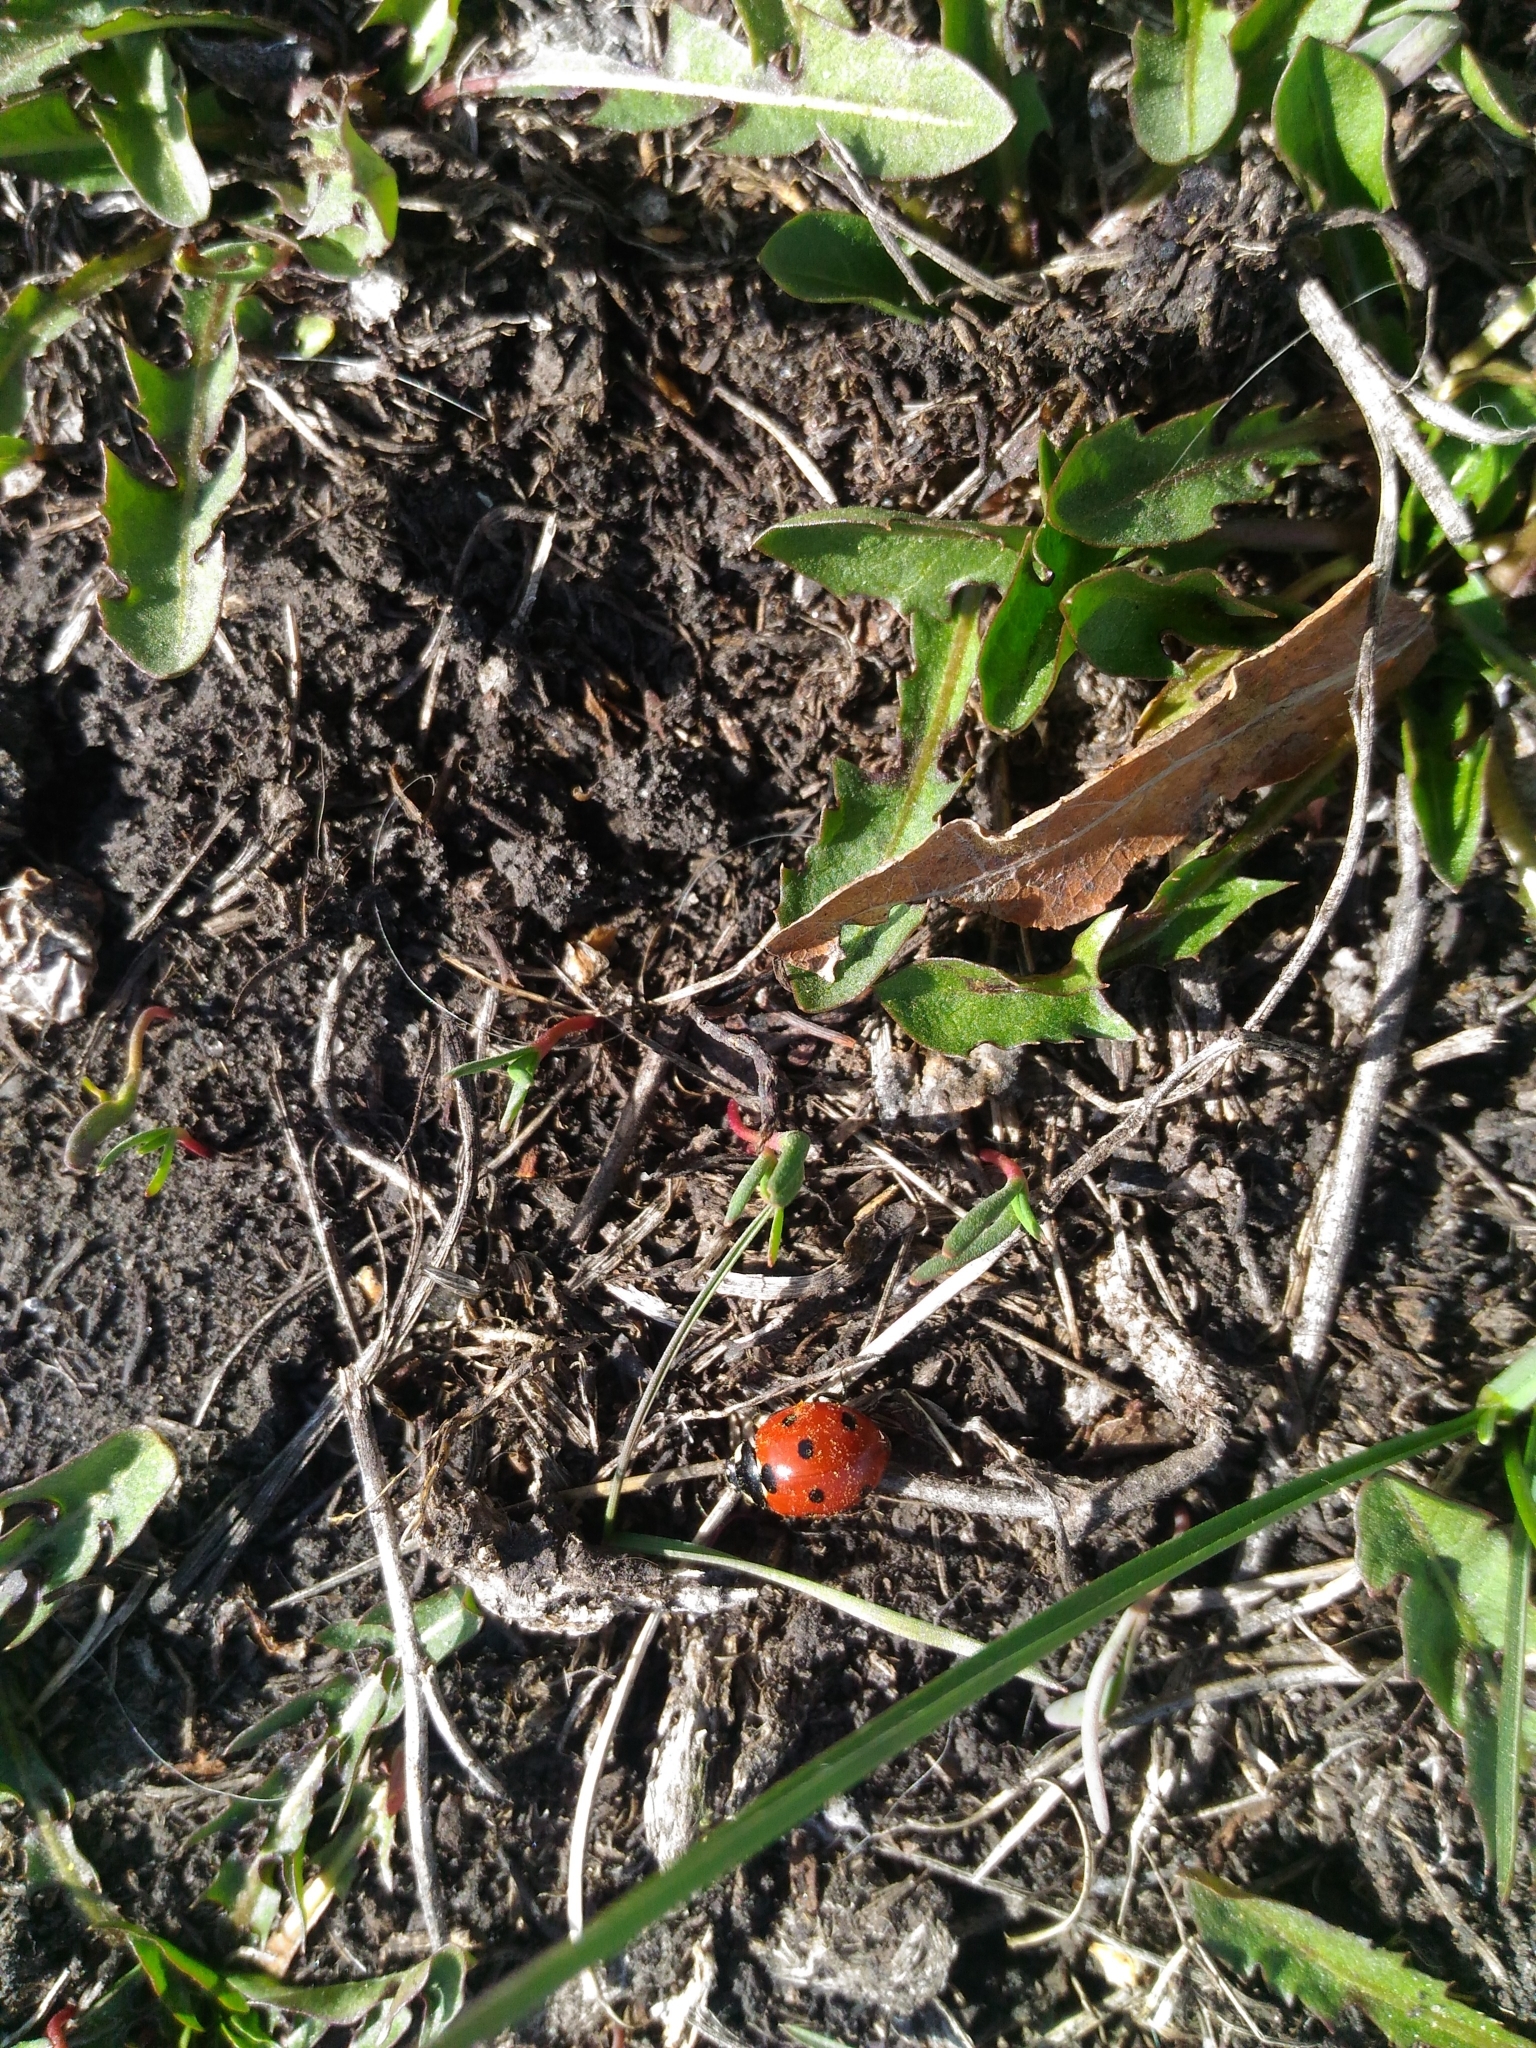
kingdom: Animalia
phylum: Arthropoda
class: Insecta
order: Coleoptera
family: Coccinellidae
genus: Coccinella
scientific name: Coccinella septempunctata
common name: Sevenspotted lady beetle
